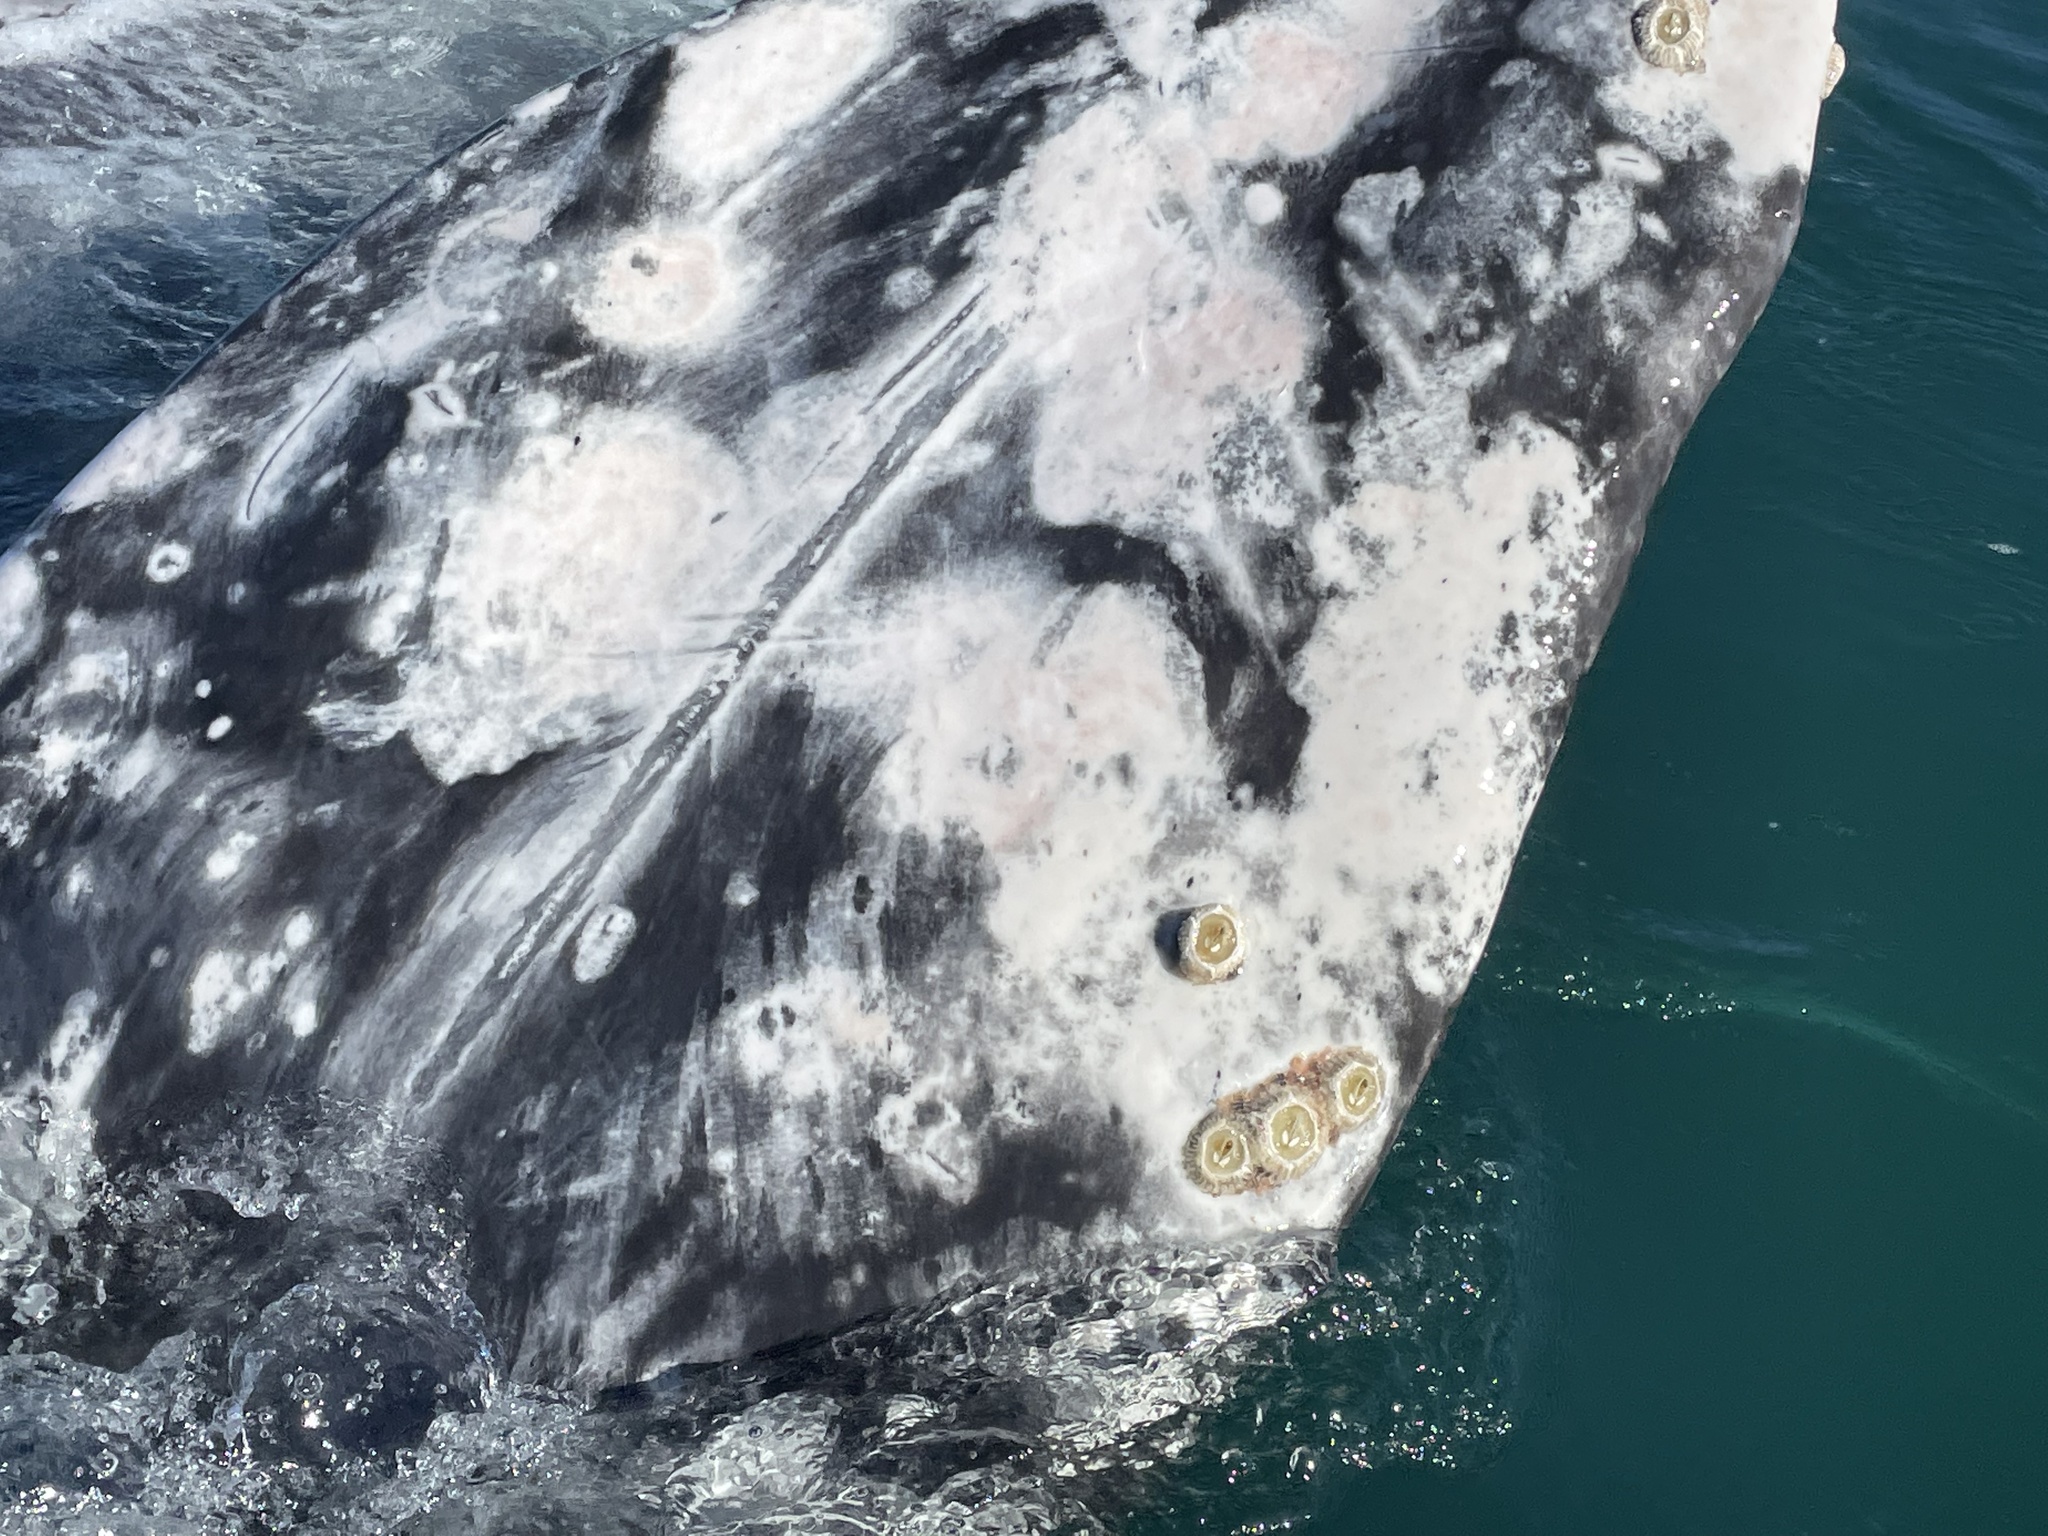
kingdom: Animalia
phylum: Chordata
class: Mammalia
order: Cetacea
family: Eschrichtiidae
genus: Eschrichtius
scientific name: Eschrichtius robustus
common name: Gray whale
